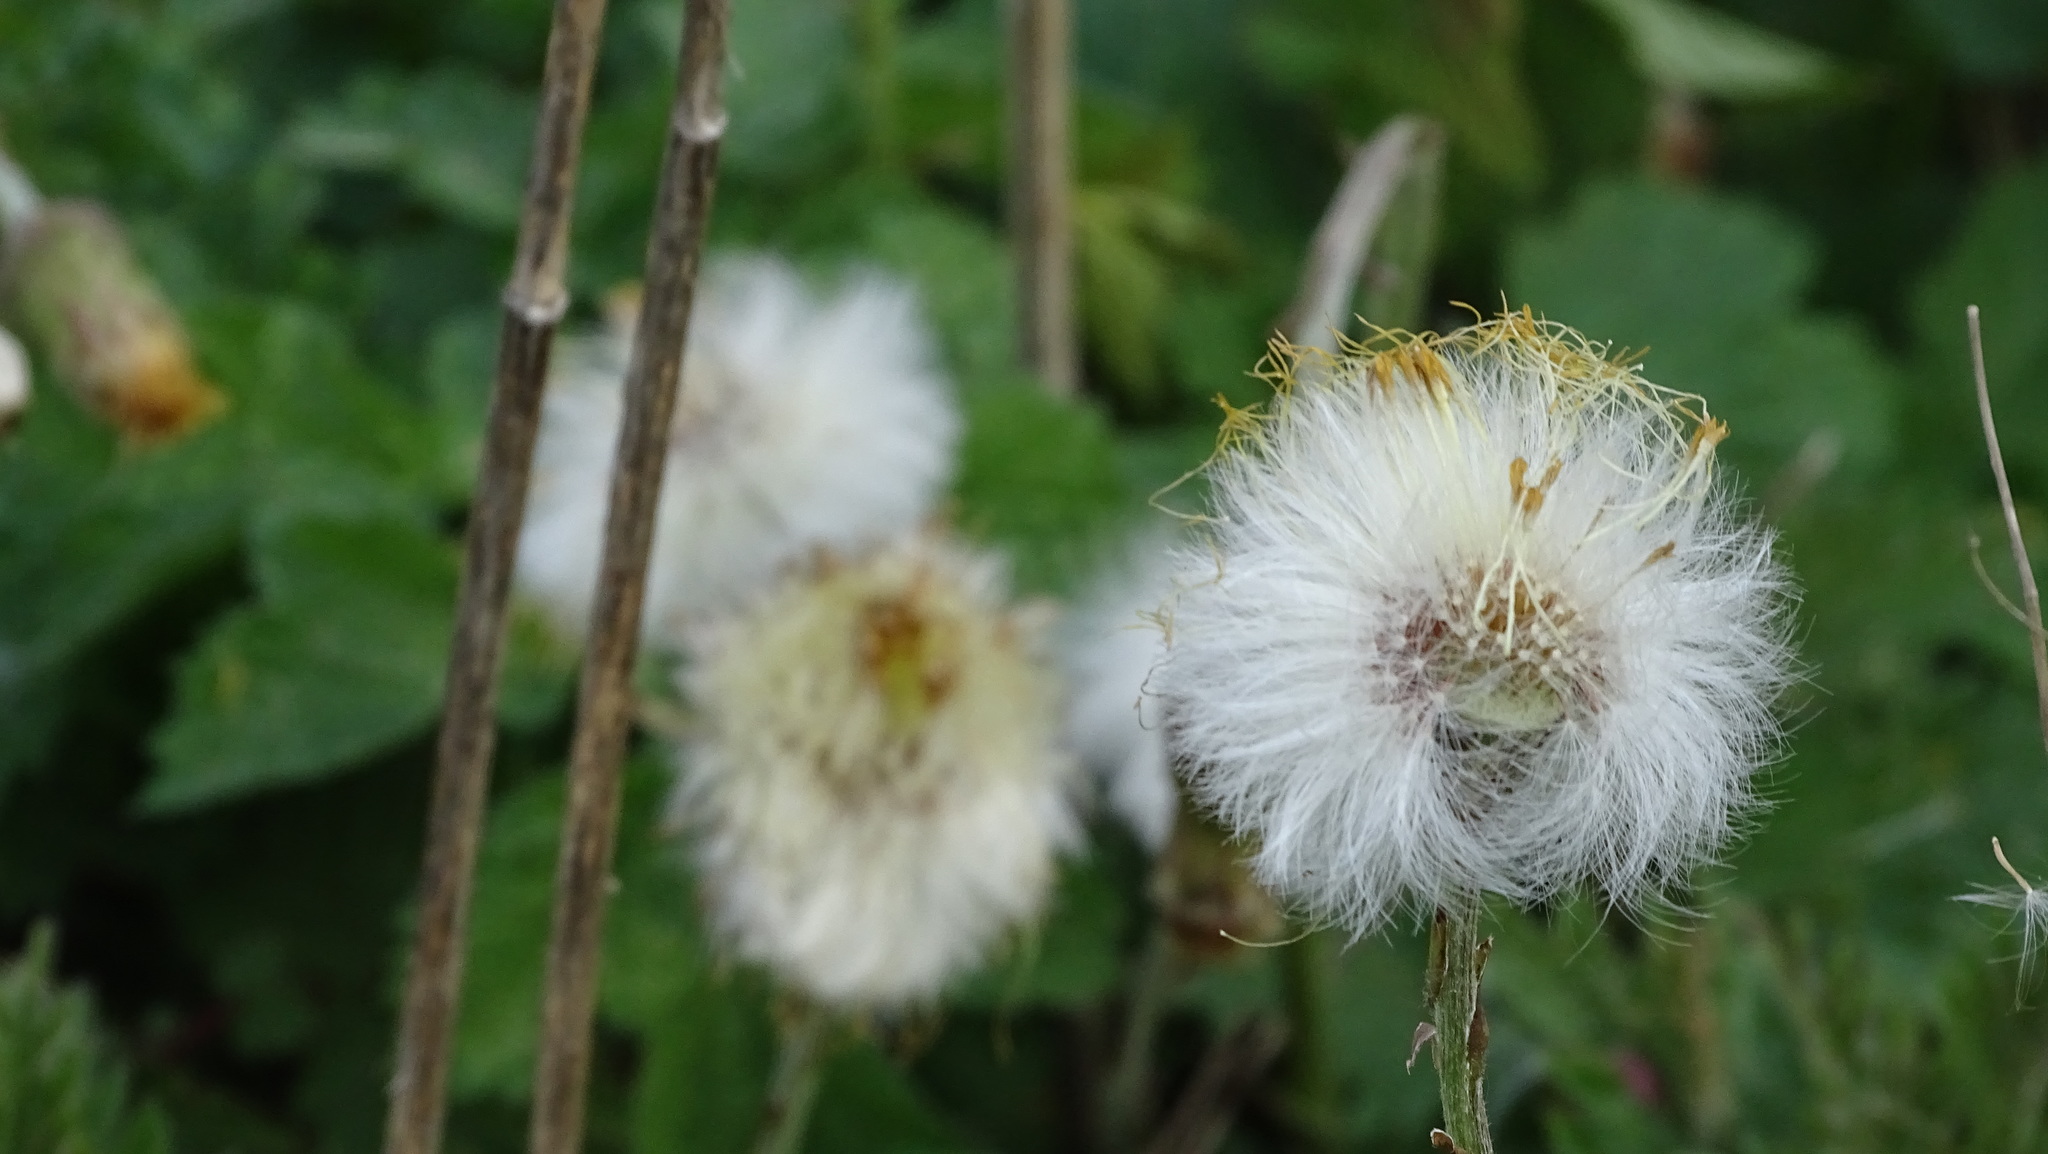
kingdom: Plantae
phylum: Tracheophyta
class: Magnoliopsida
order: Asterales
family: Asteraceae
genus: Tussilago
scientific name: Tussilago farfara
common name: Coltsfoot
